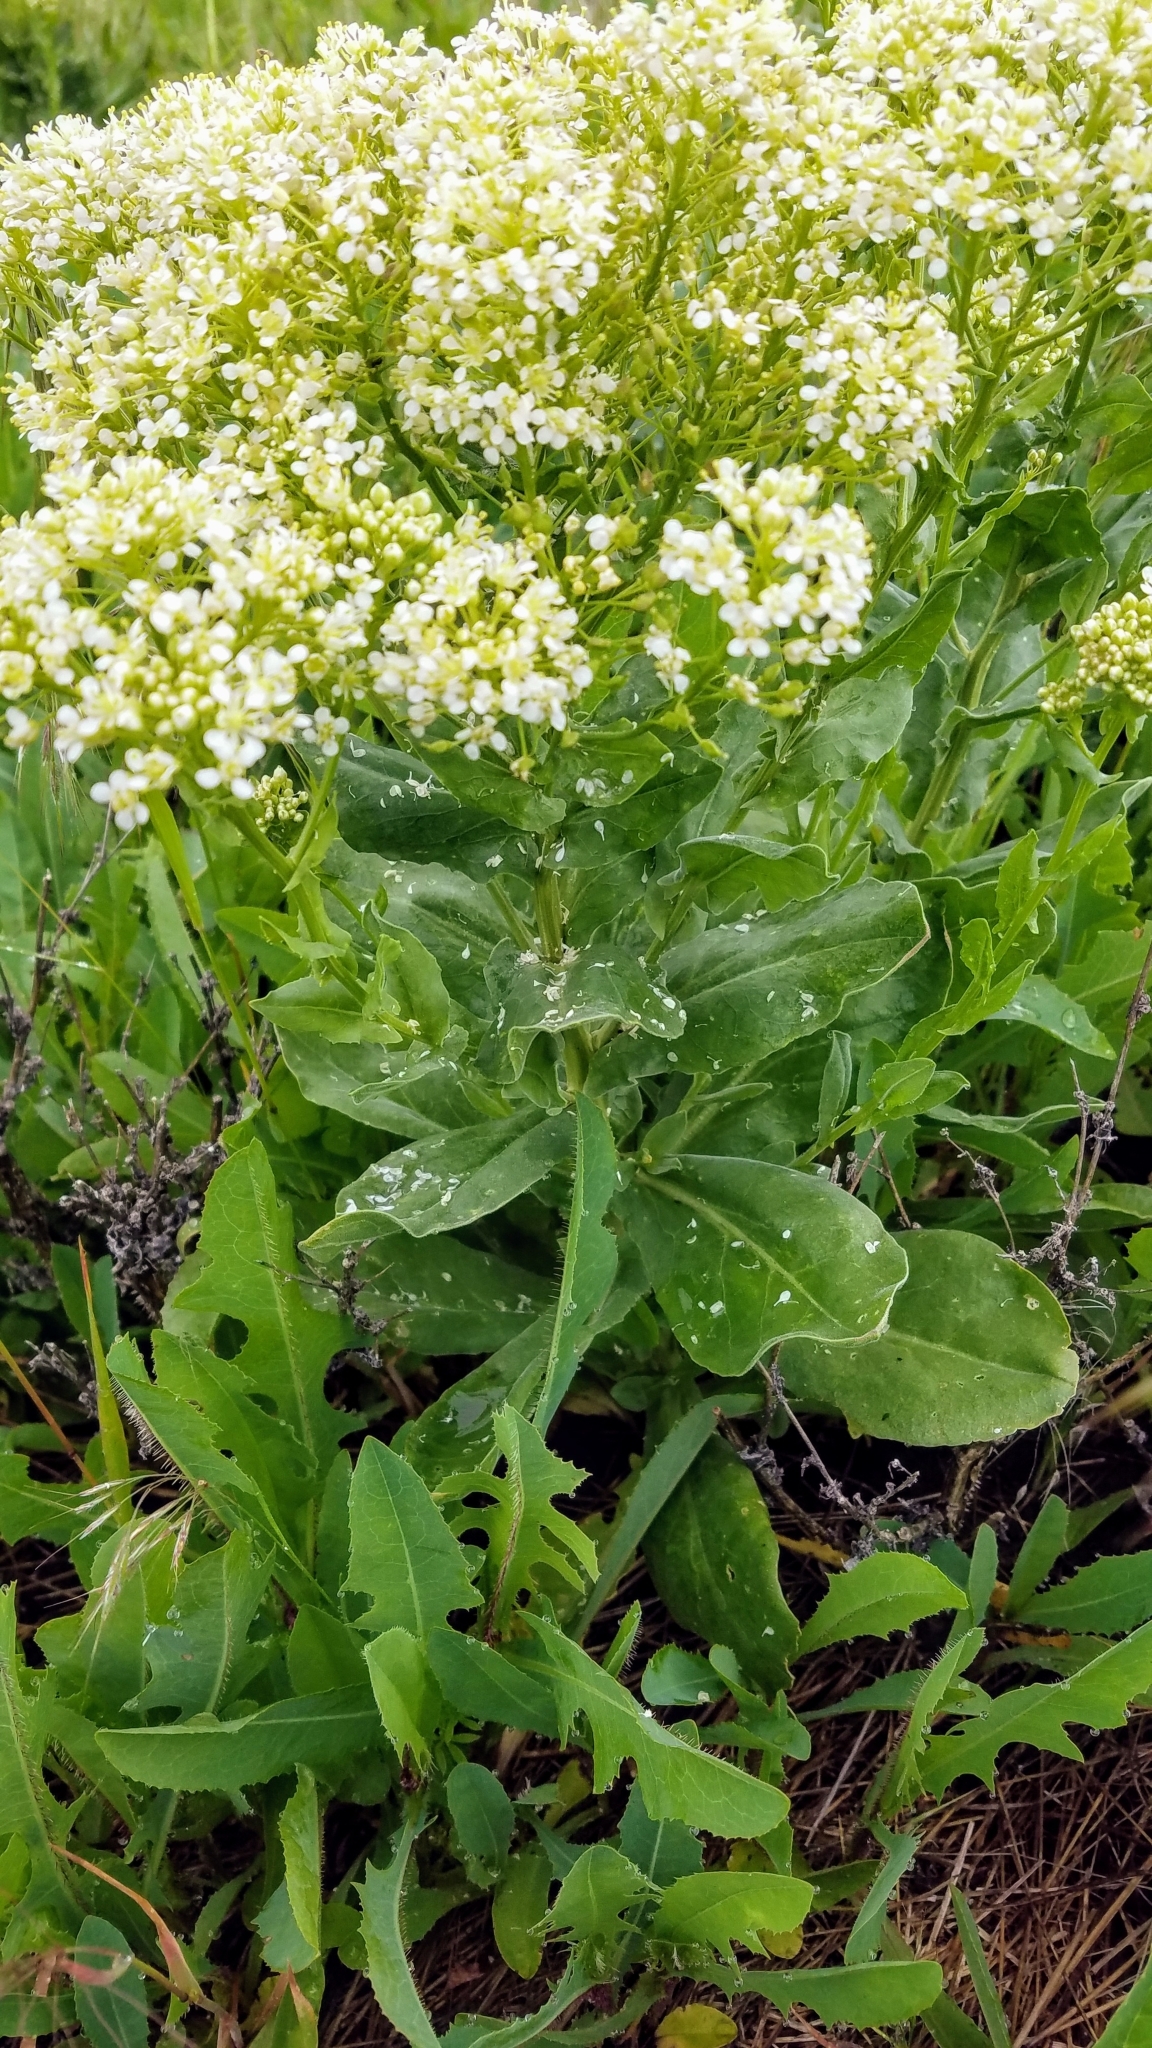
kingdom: Plantae
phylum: Tracheophyta
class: Magnoliopsida
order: Brassicales
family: Brassicaceae
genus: Lepidium
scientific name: Lepidium draba
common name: Hoary cress
